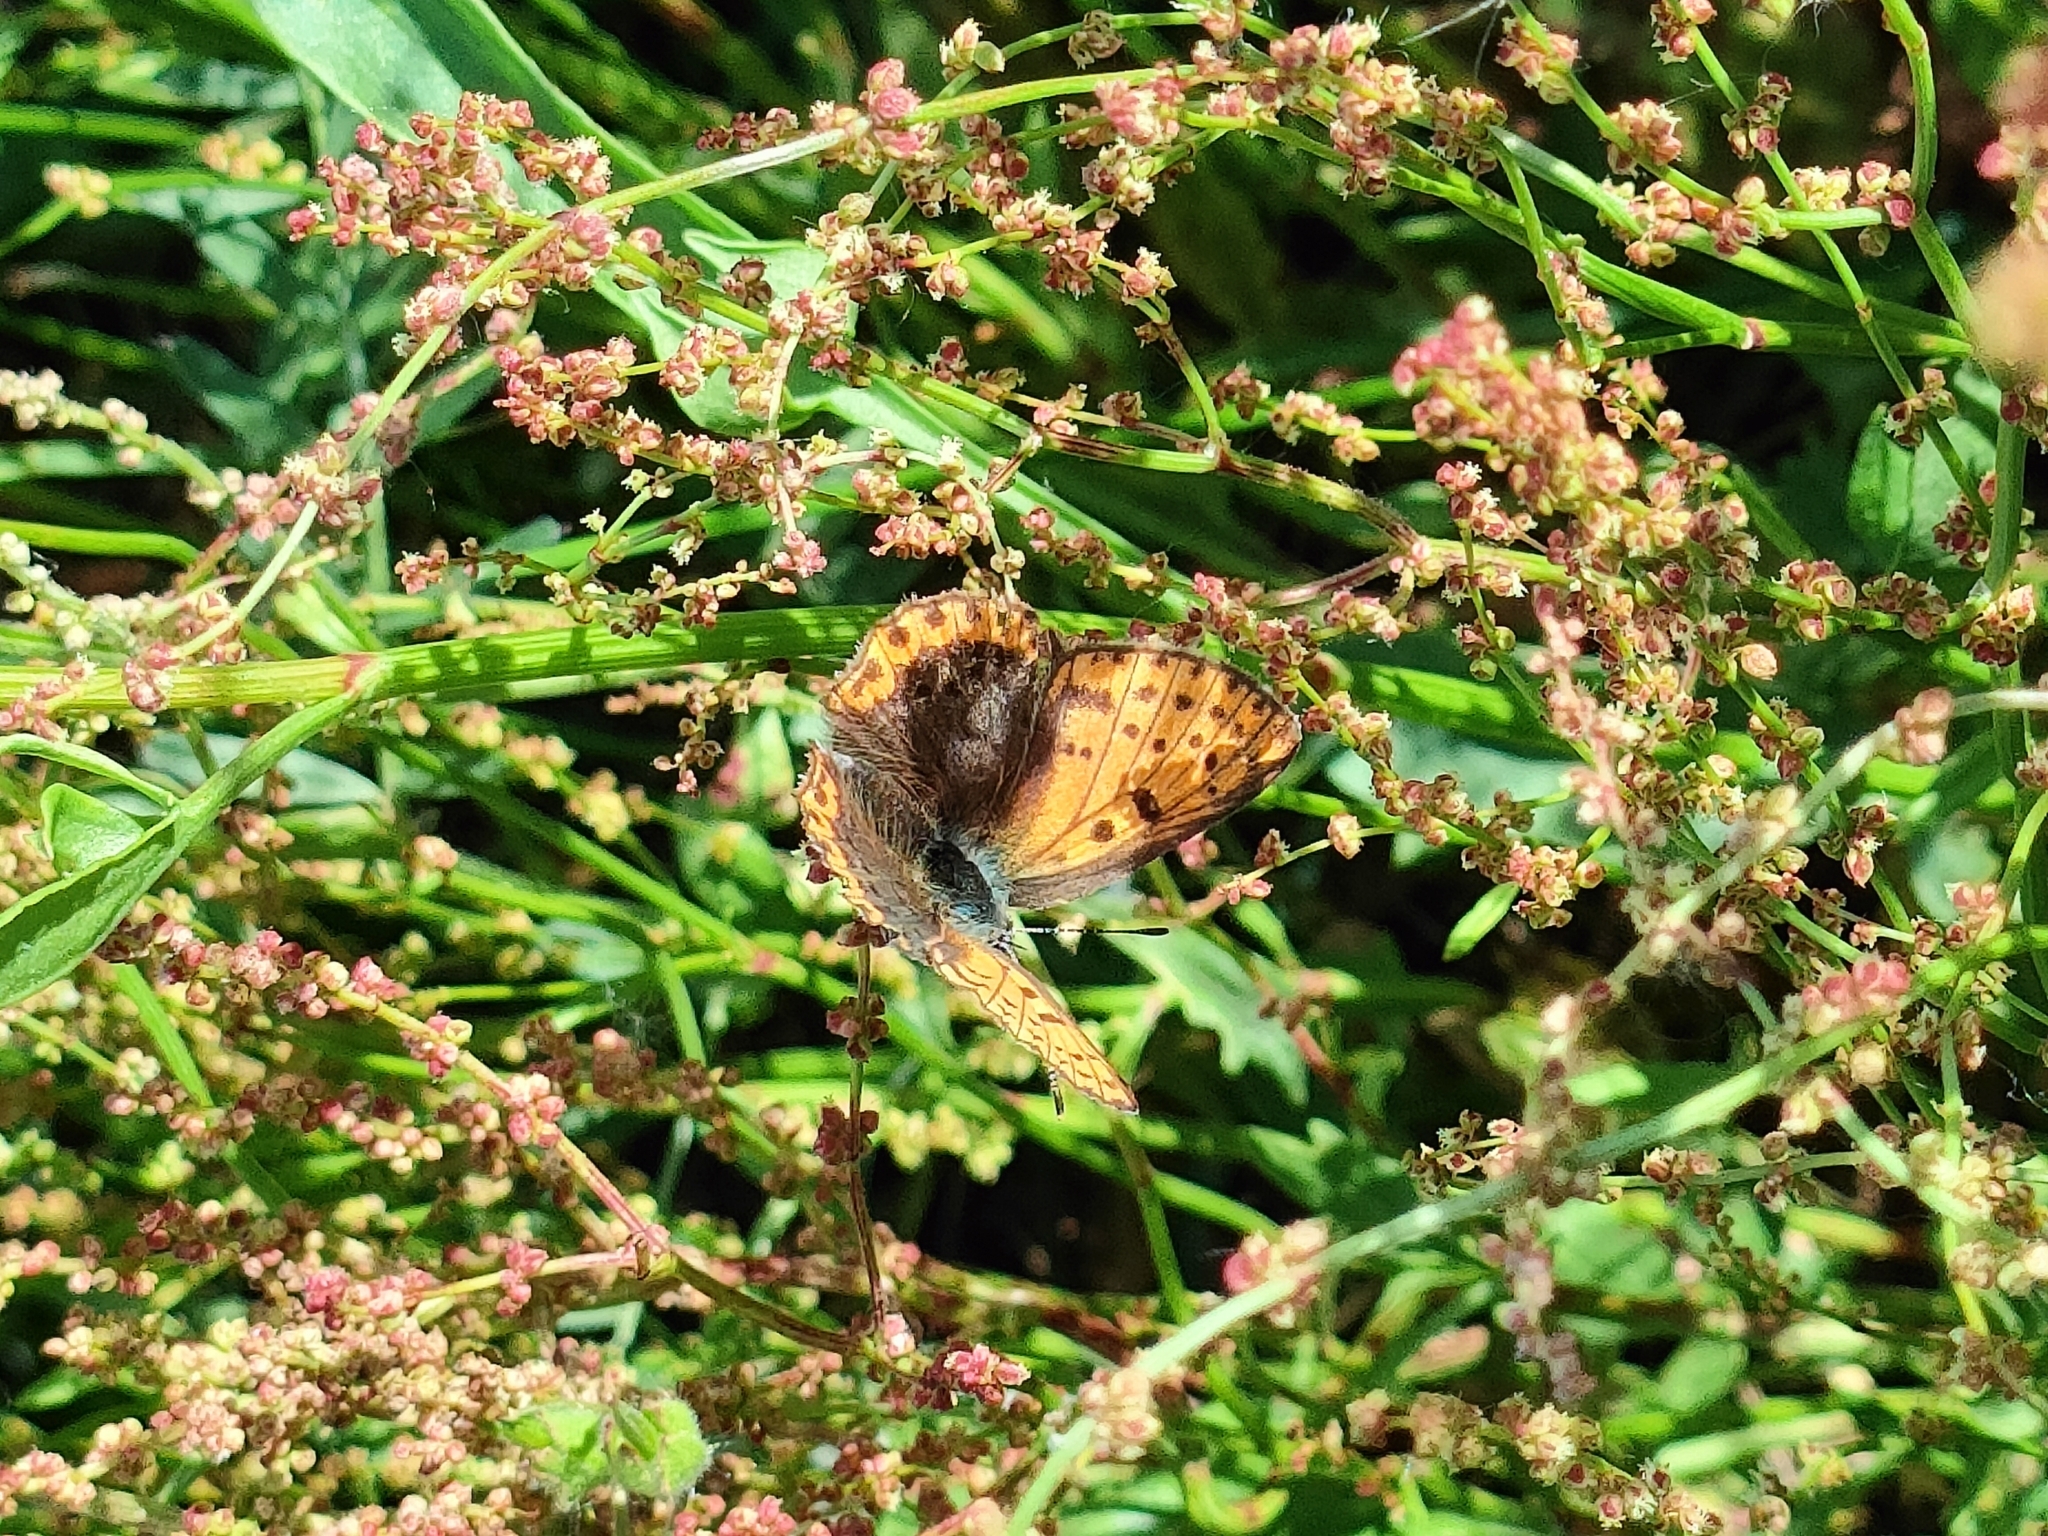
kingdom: Animalia
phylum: Arthropoda
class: Insecta
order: Lepidoptera
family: Lycaenidae
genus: Loweia
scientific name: Loweia tityrus
